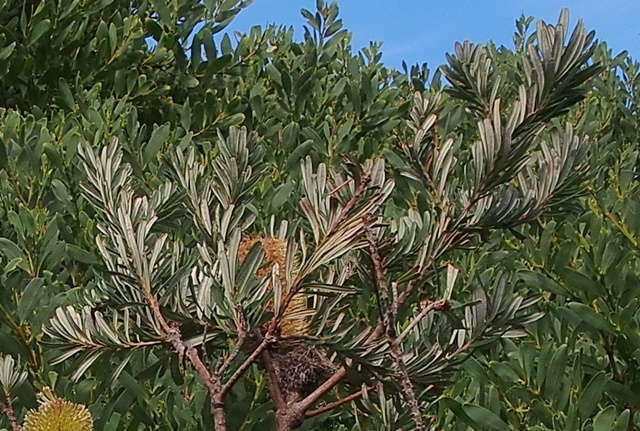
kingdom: Plantae
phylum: Tracheophyta
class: Magnoliopsida
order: Proteales
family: Proteaceae
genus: Banksia
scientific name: Banksia marginata
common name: Silver banksia
